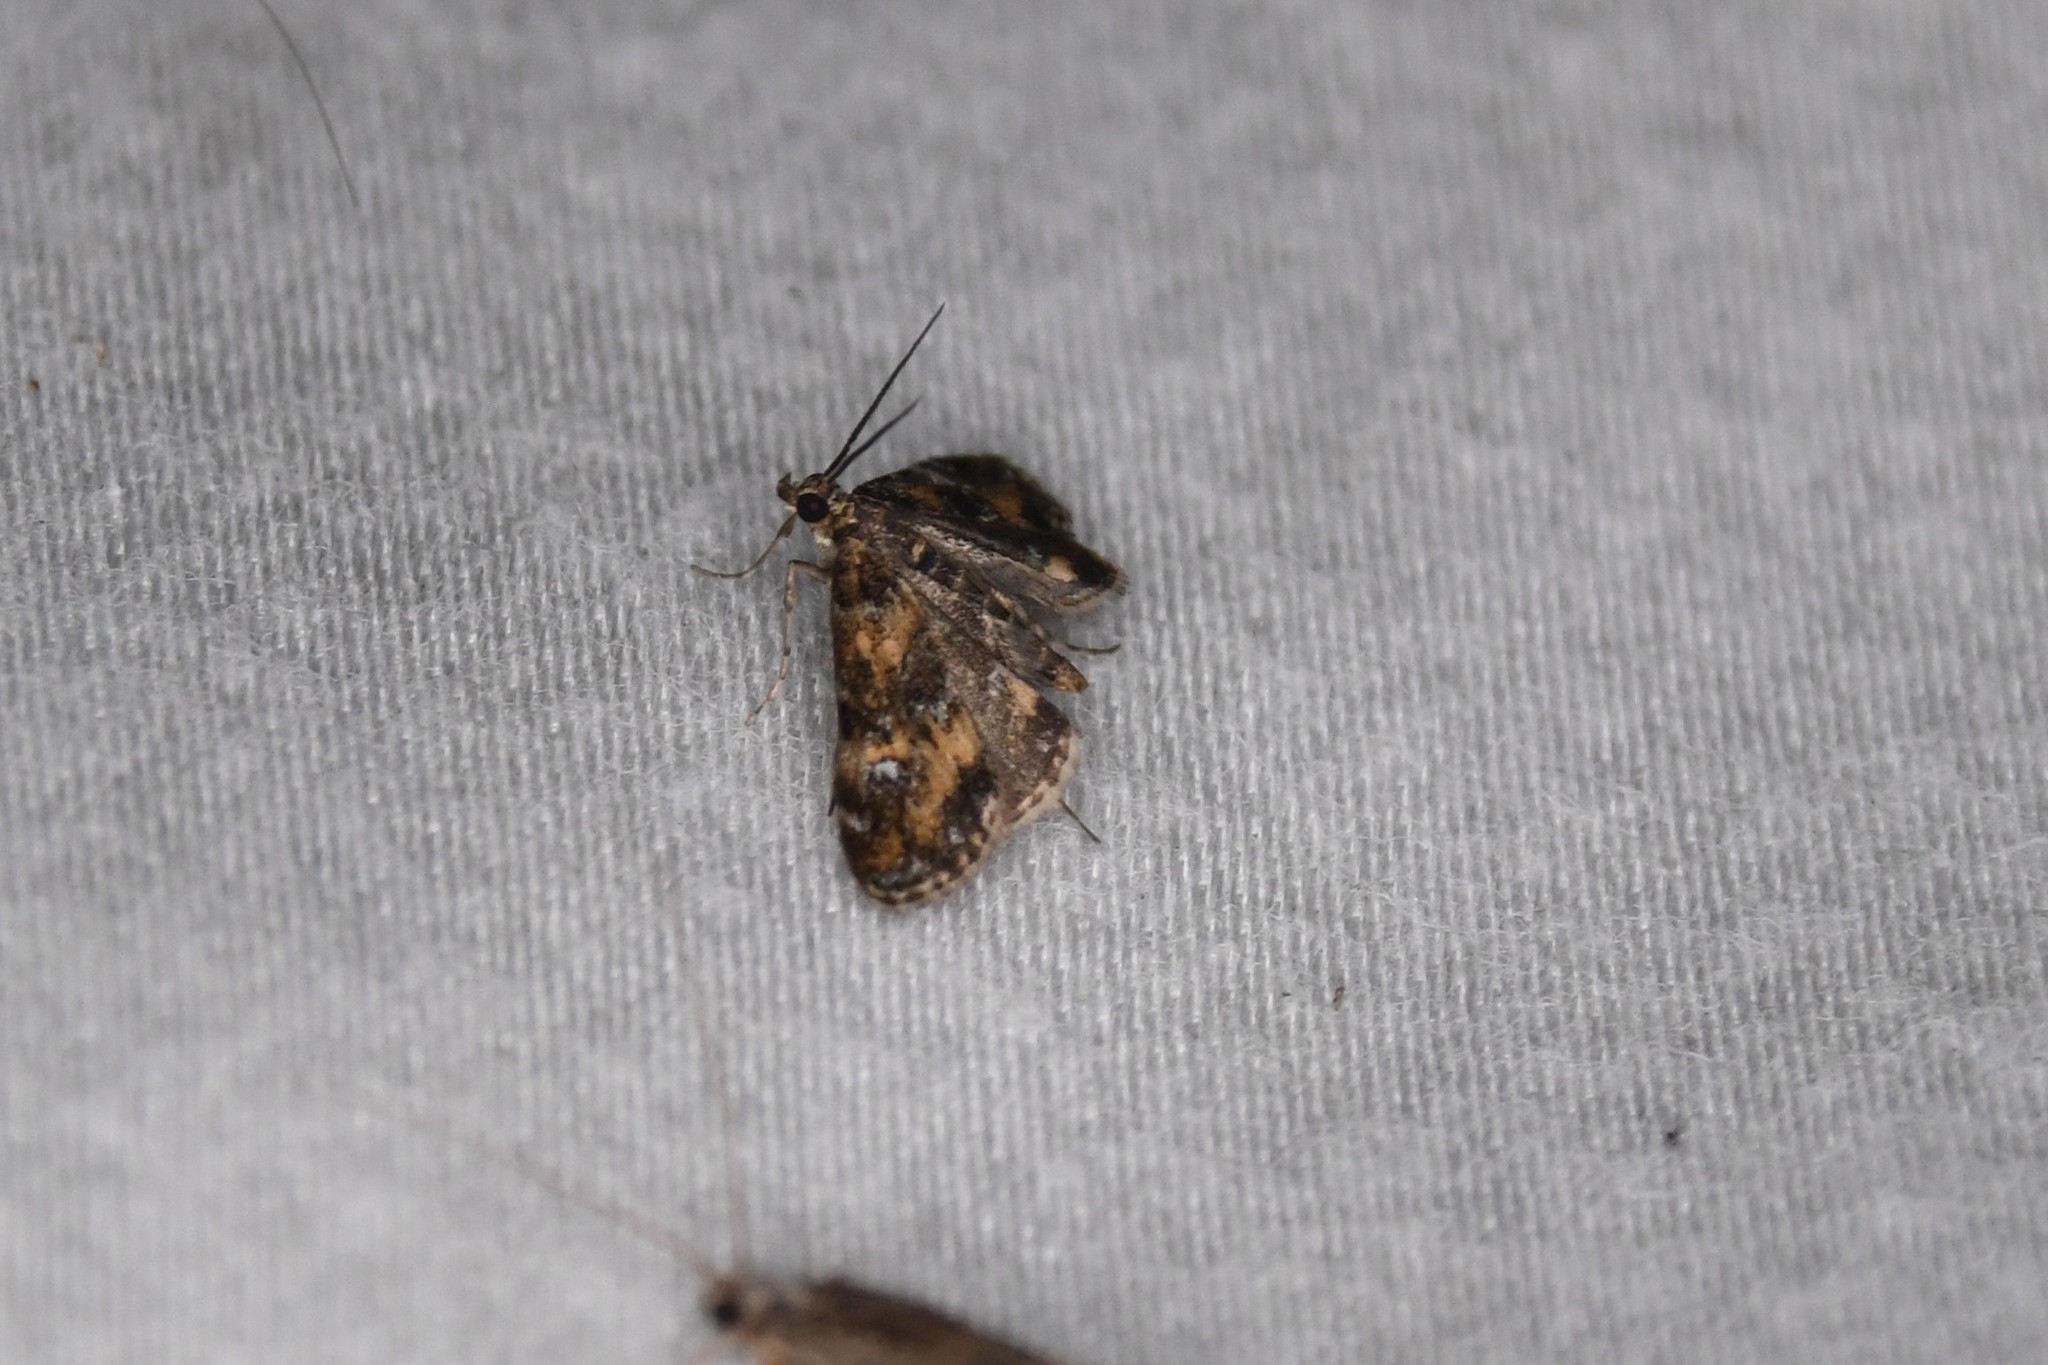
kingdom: Animalia
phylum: Arthropoda
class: Insecta
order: Lepidoptera
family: Crambidae
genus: Elophila
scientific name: Elophila obliteralis
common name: Waterlily leafcutter moth
